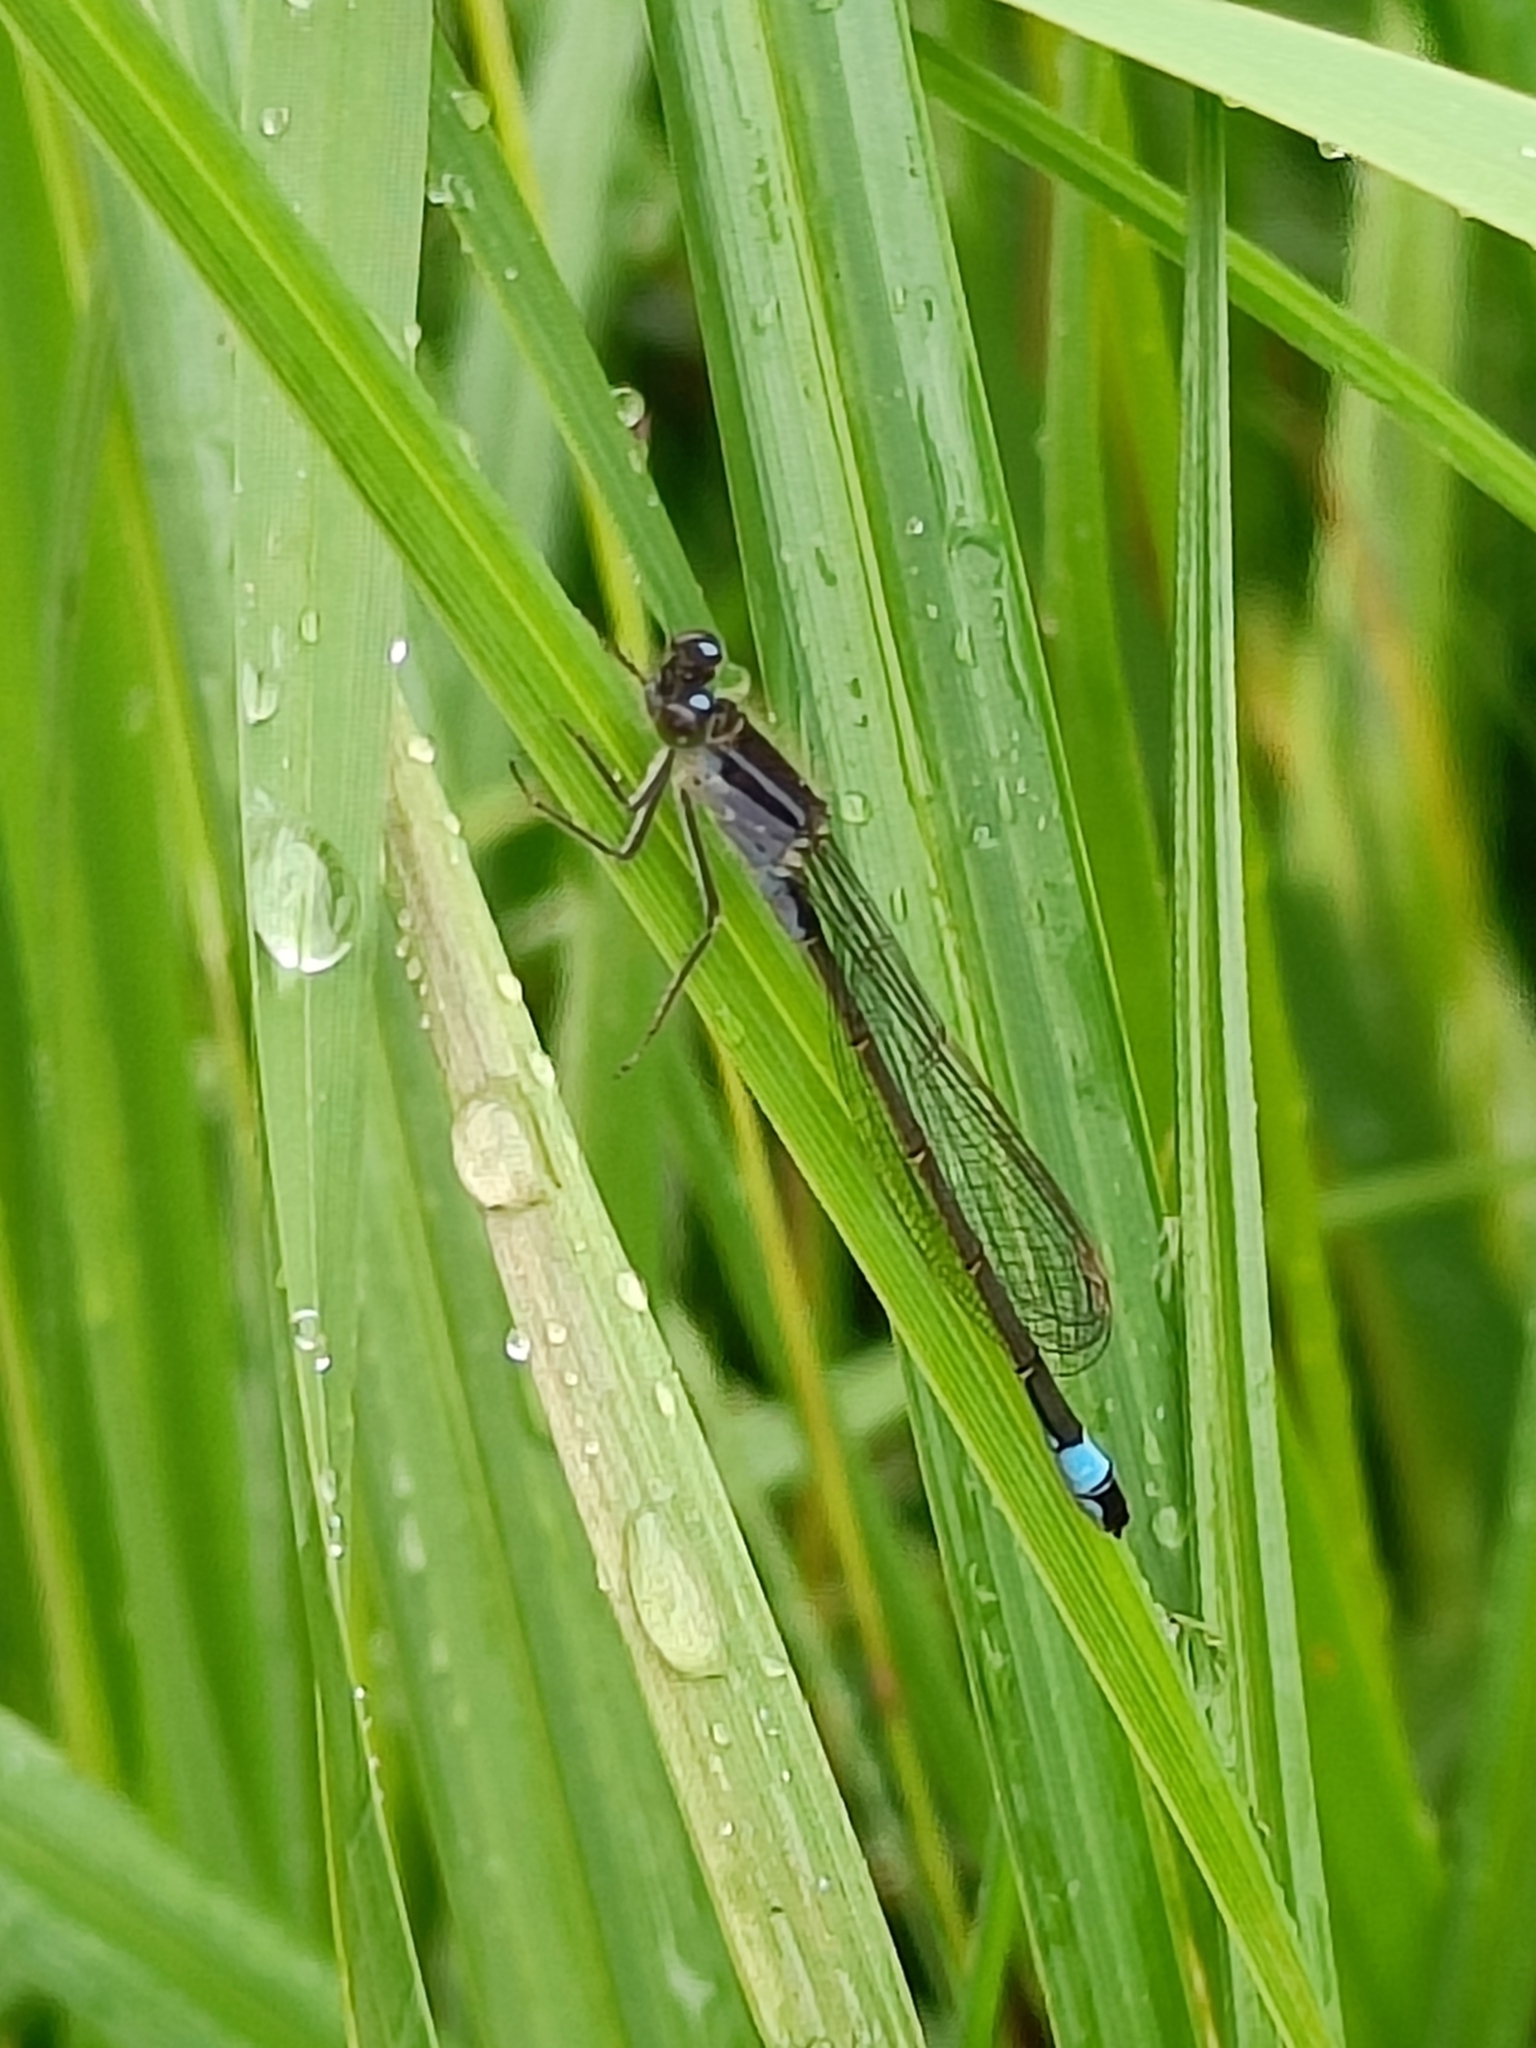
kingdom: Animalia
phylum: Arthropoda
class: Insecta
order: Odonata
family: Coenagrionidae
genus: Ischnura
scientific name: Ischnura elegans
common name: Blue-tailed damselfly
